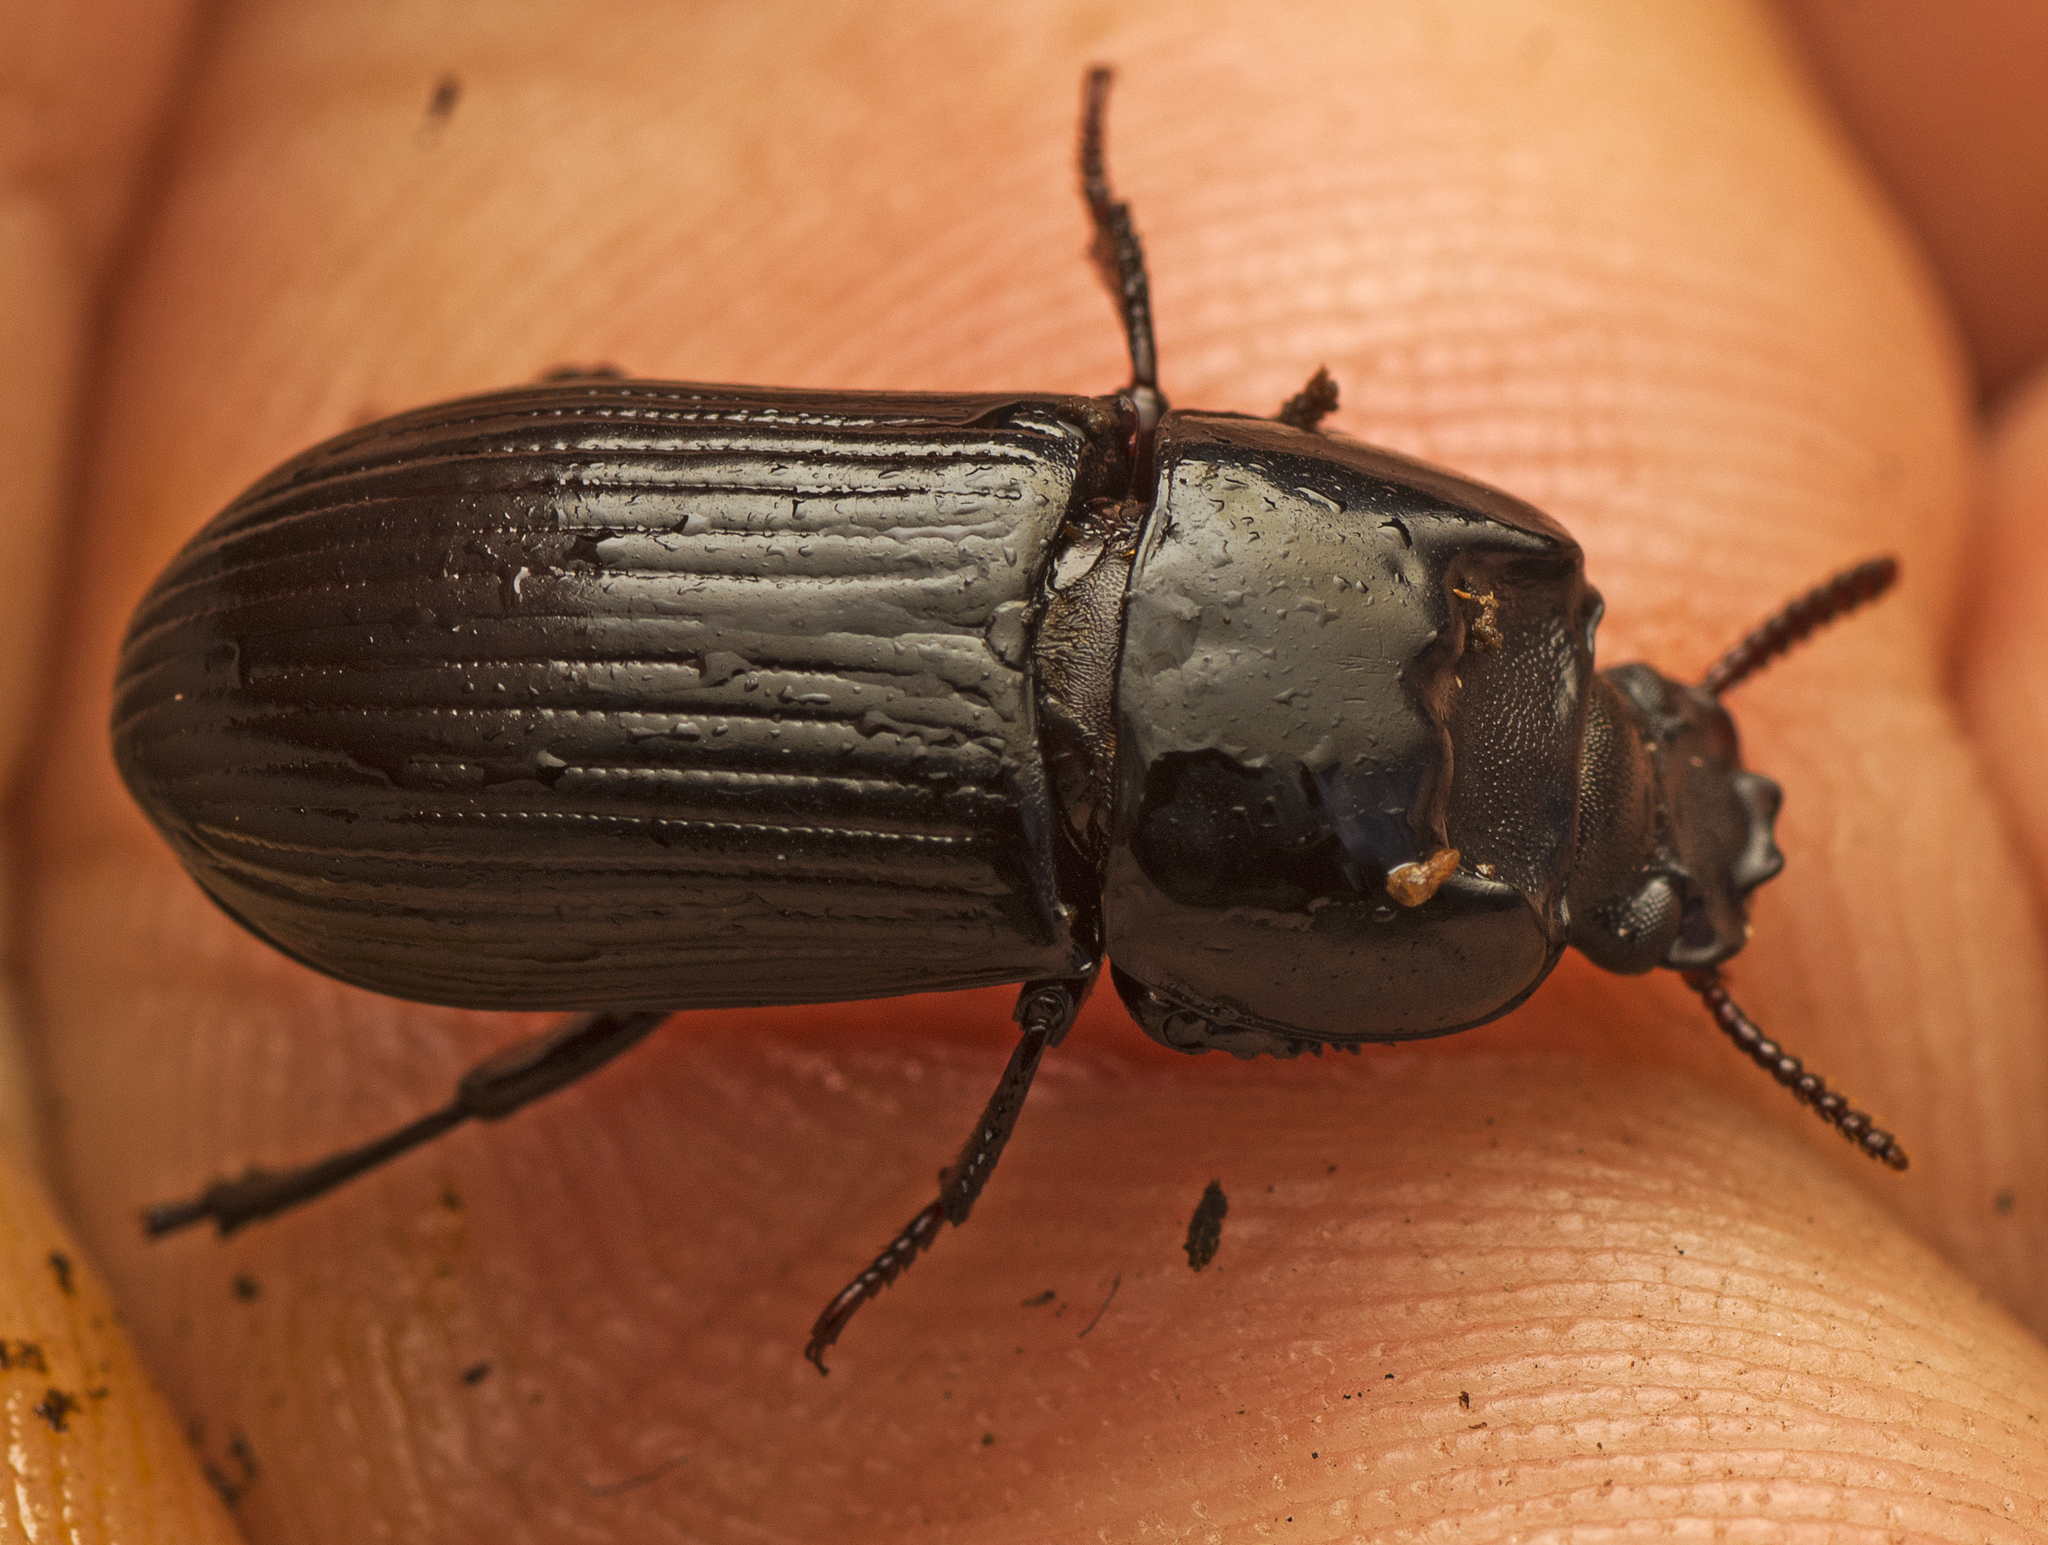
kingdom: Animalia
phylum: Arthropoda
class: Insecta
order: Coleoptera
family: Tenebrionidae
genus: Achthosus
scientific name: Achthosus westwoodi
